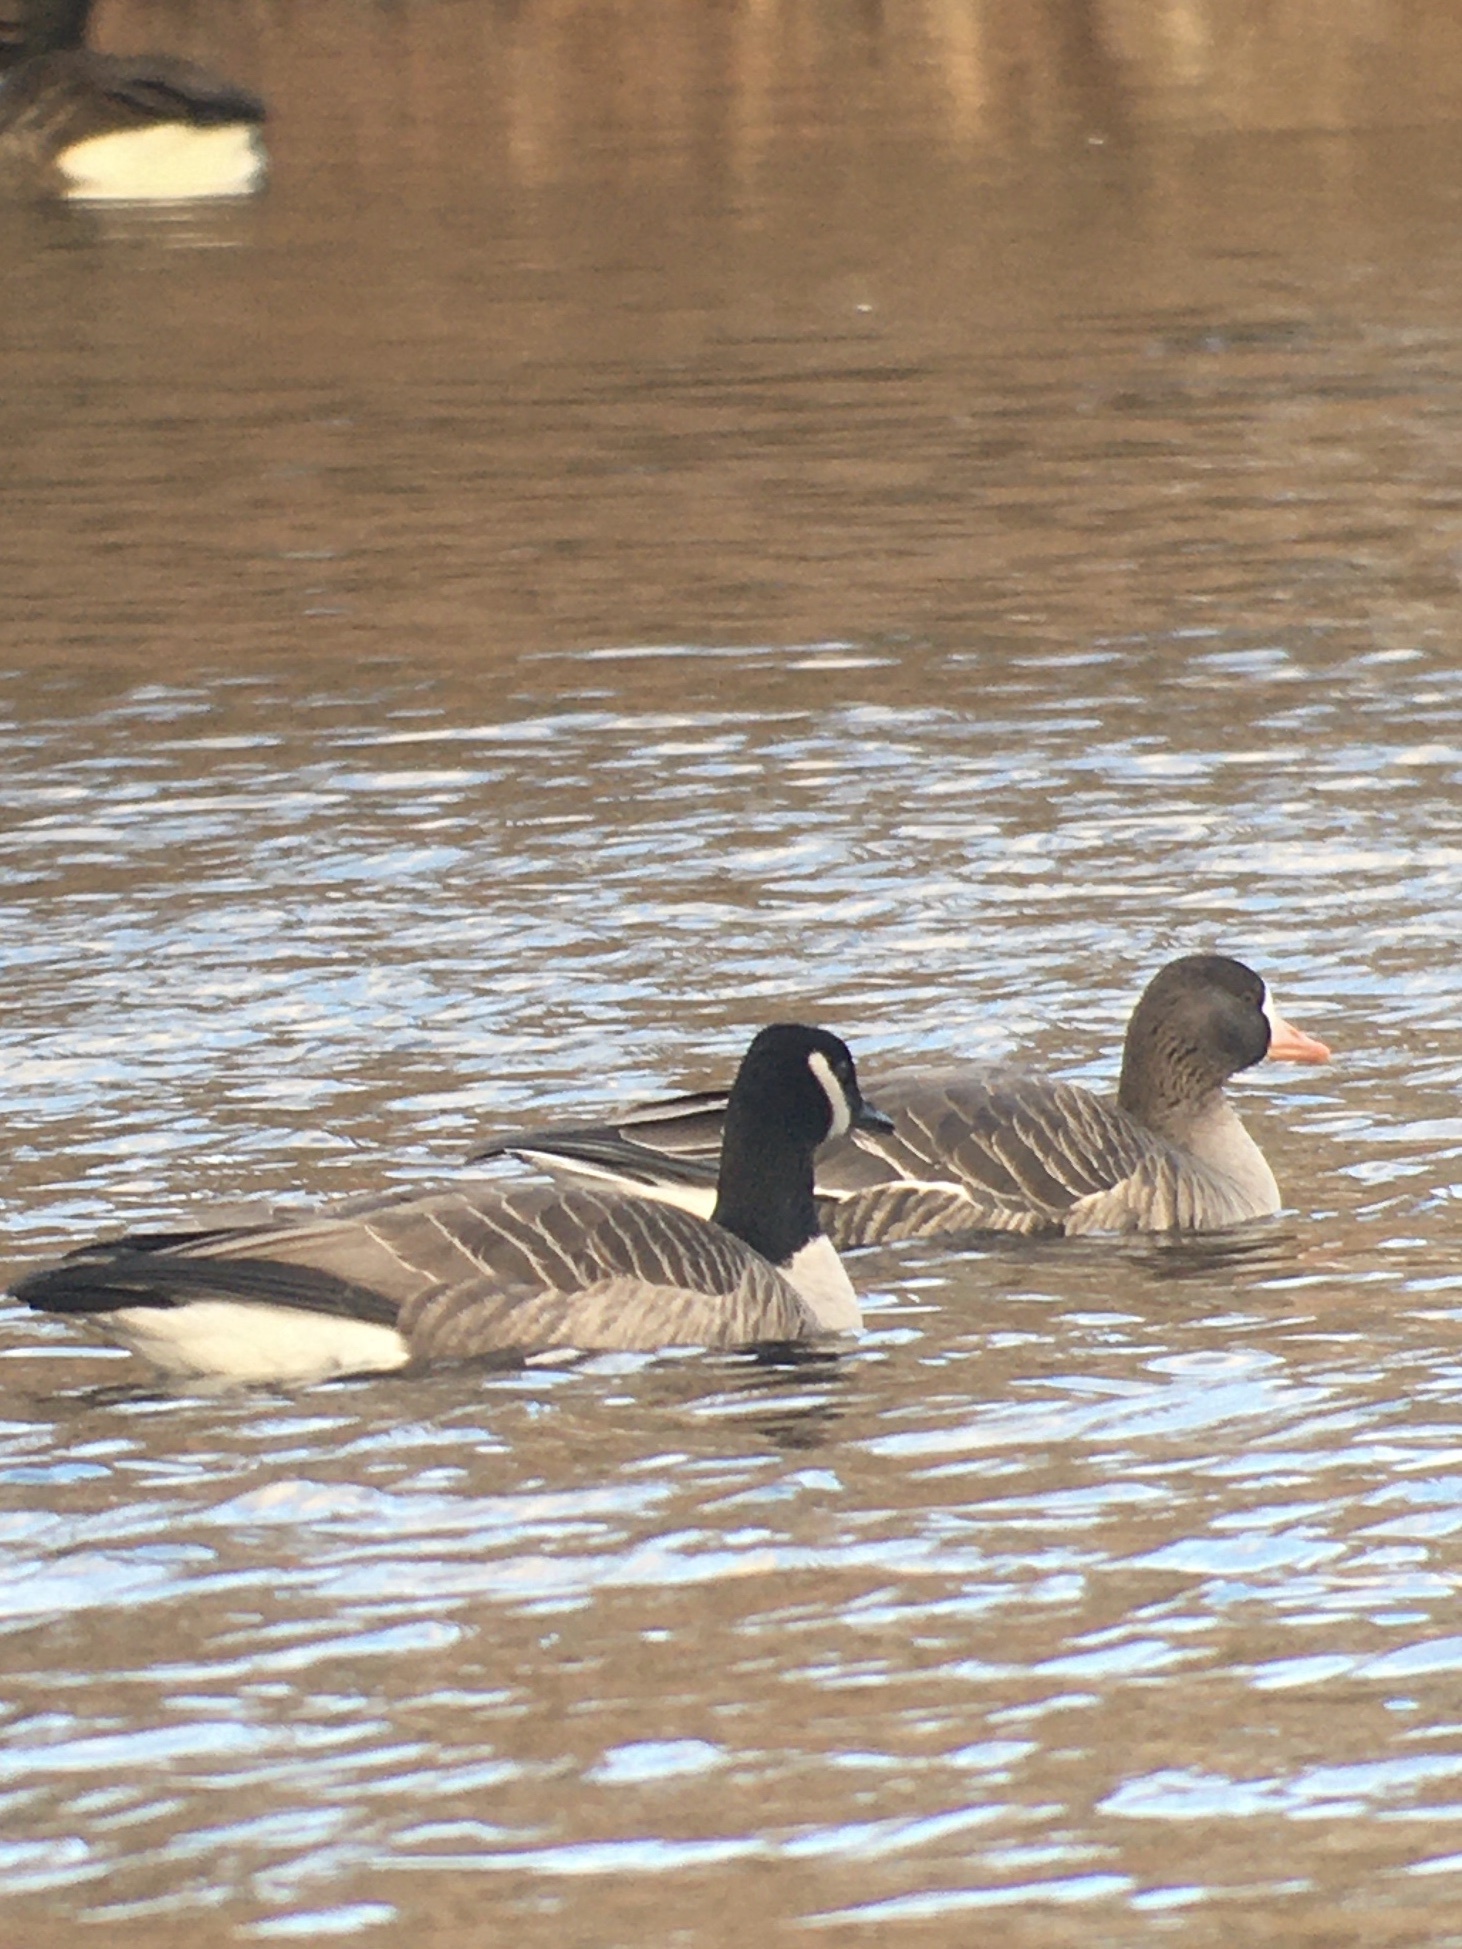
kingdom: Animalia
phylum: Chordata
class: Aves
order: Anseriformes
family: Anatidae
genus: Anser
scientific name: Anser albifrons
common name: Greater white-fronted goose
